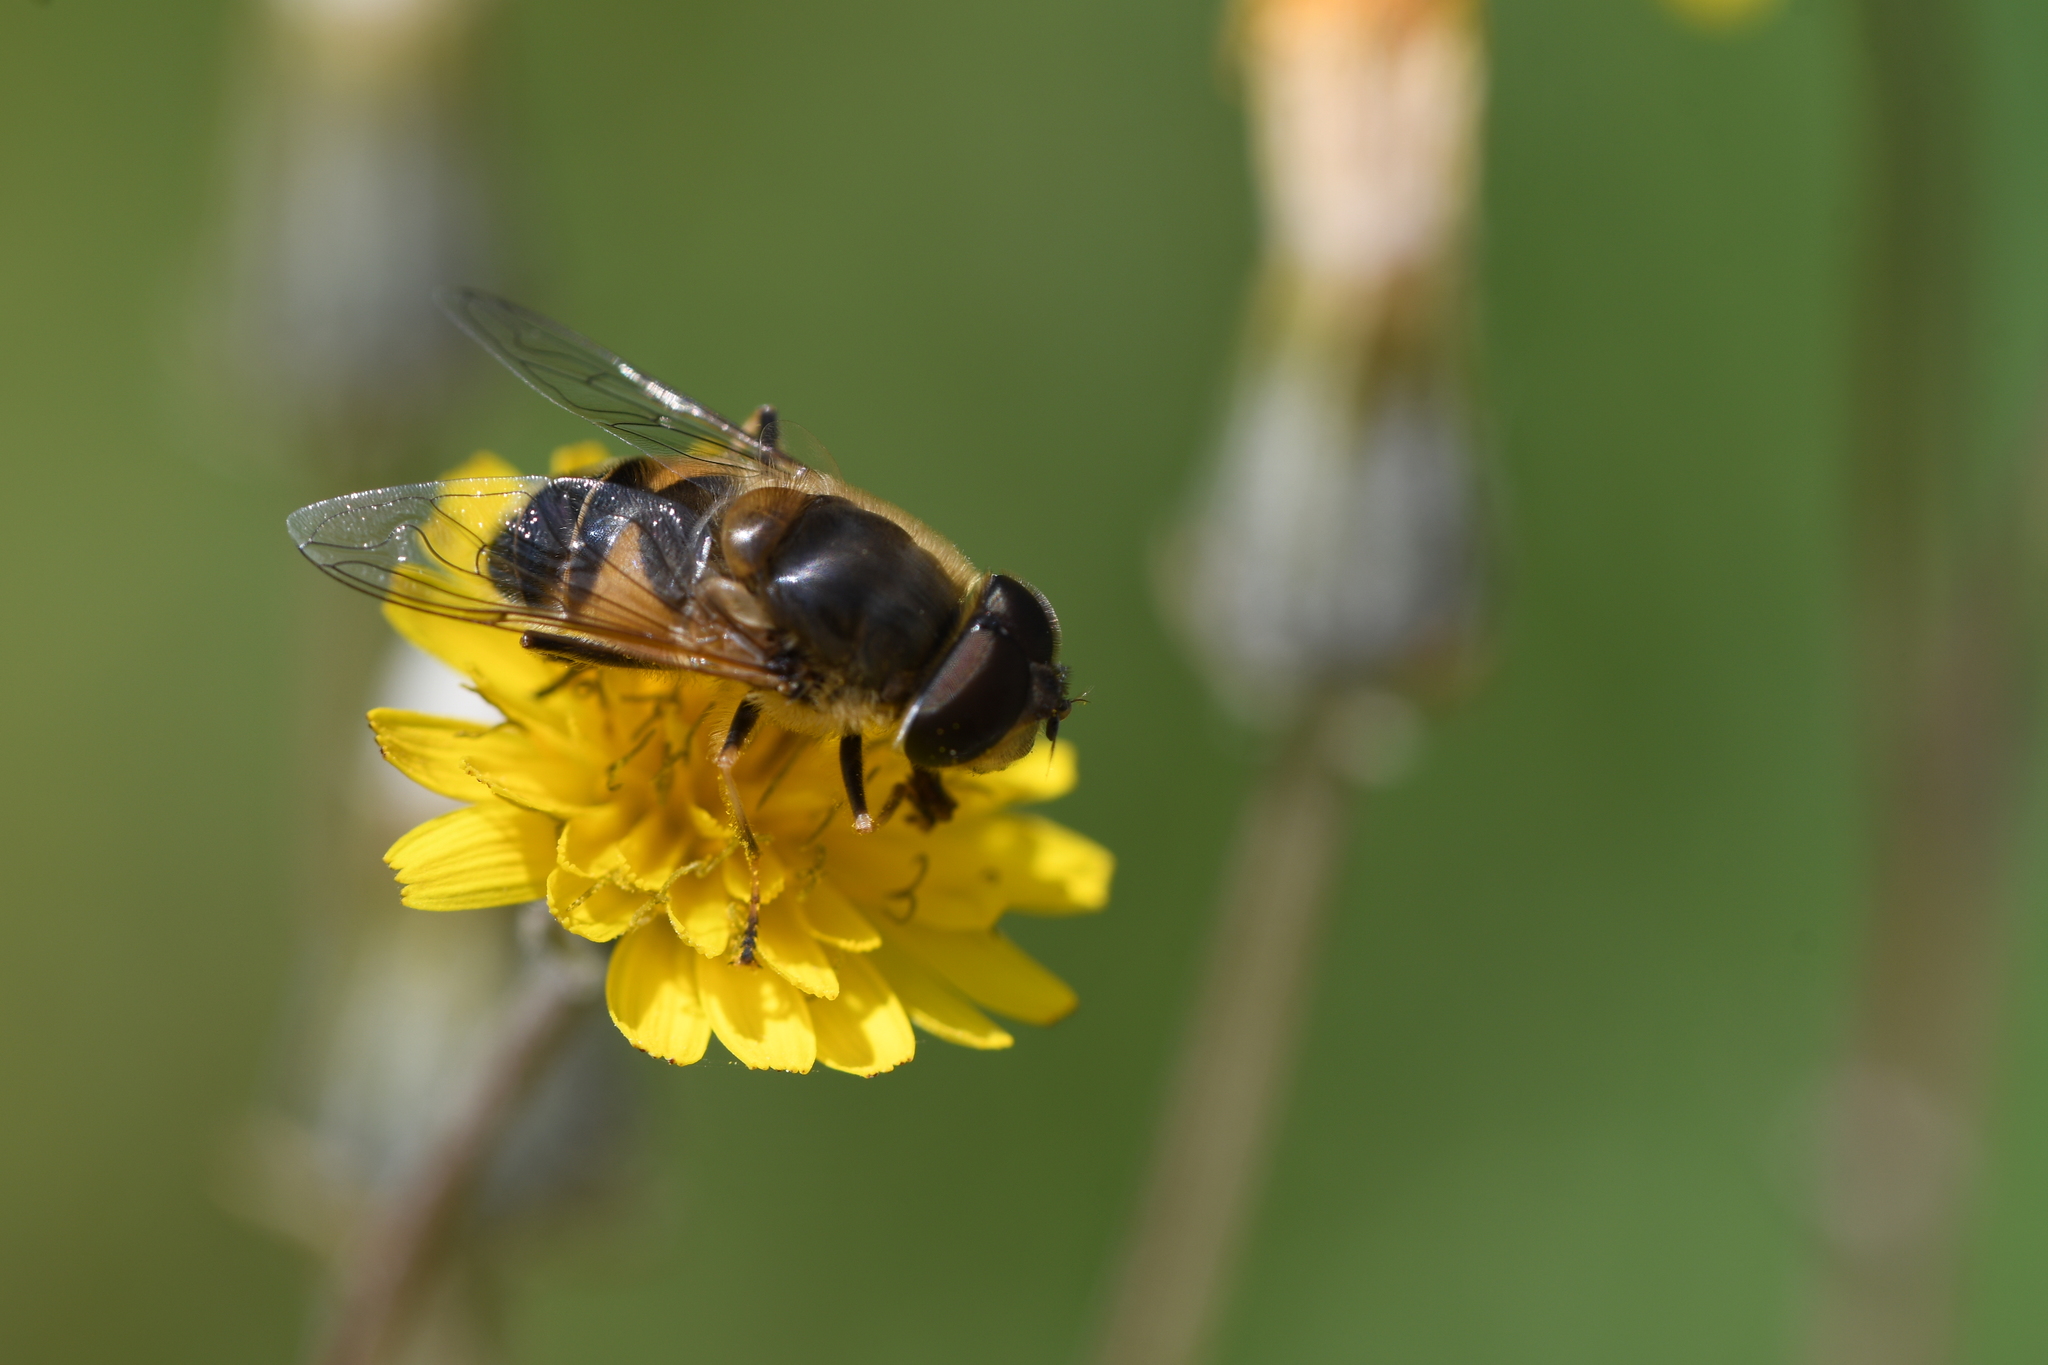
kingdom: Animalia
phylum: Arthropoda
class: Insecta
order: Diptera
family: Syrphidae
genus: Eristalis
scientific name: Eristalis pertinax
